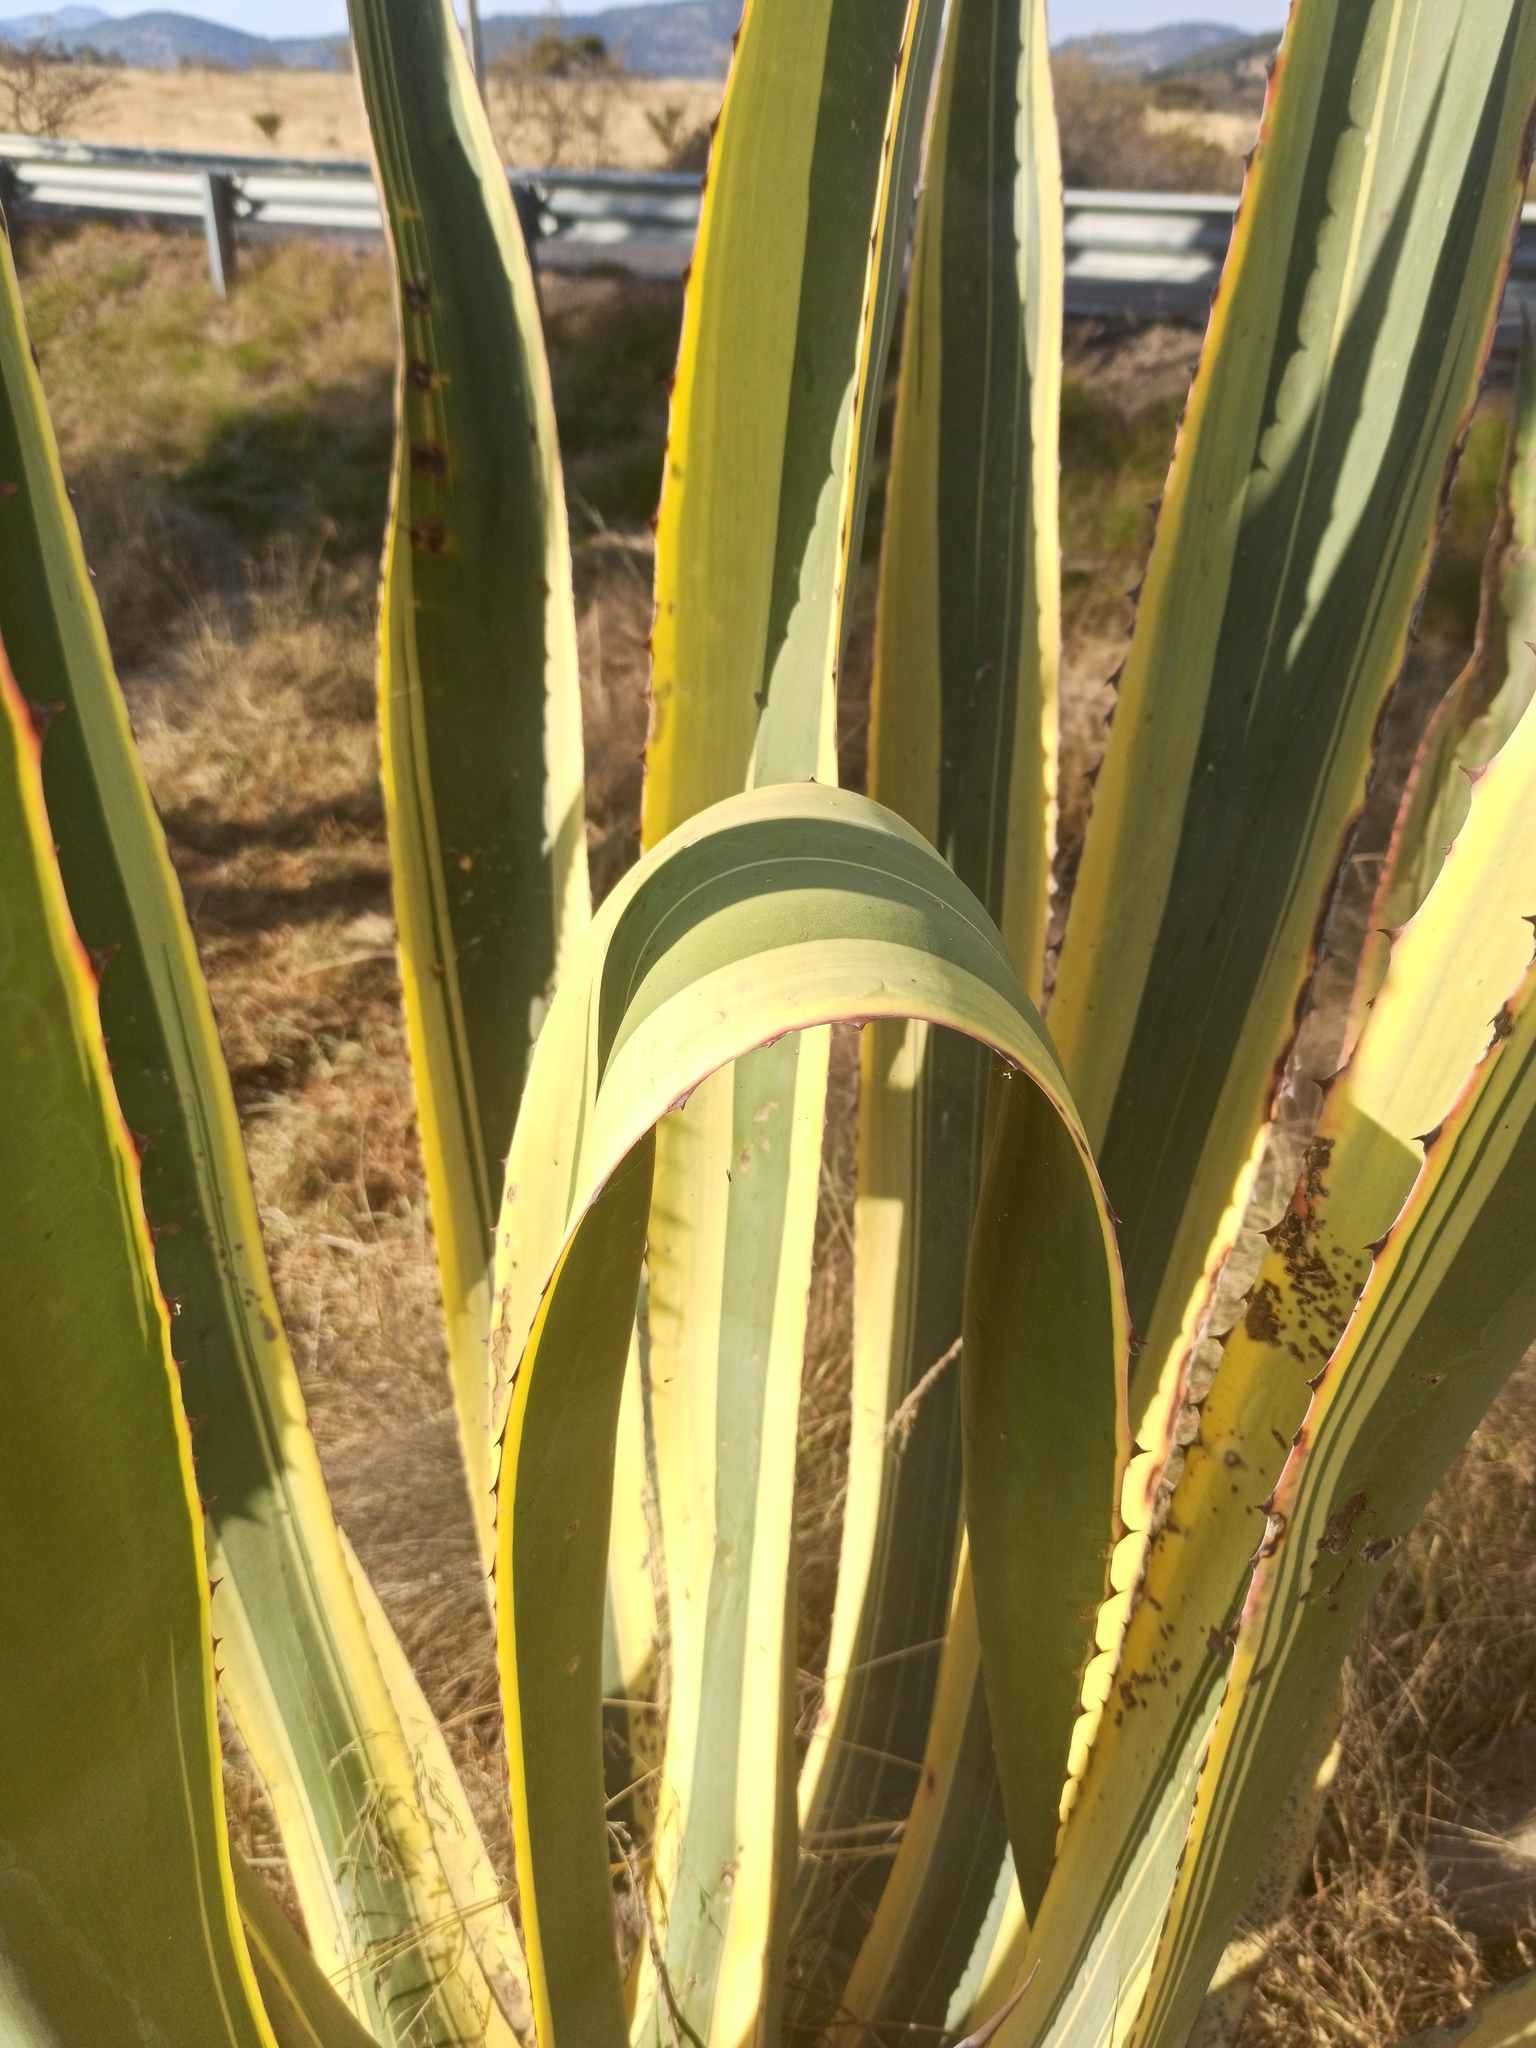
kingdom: Plantae
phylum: Tracheophyta
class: Liliopsida
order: Asparagales
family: Asparagaceae
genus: Agave
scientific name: Agave americana
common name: Centuryplant
